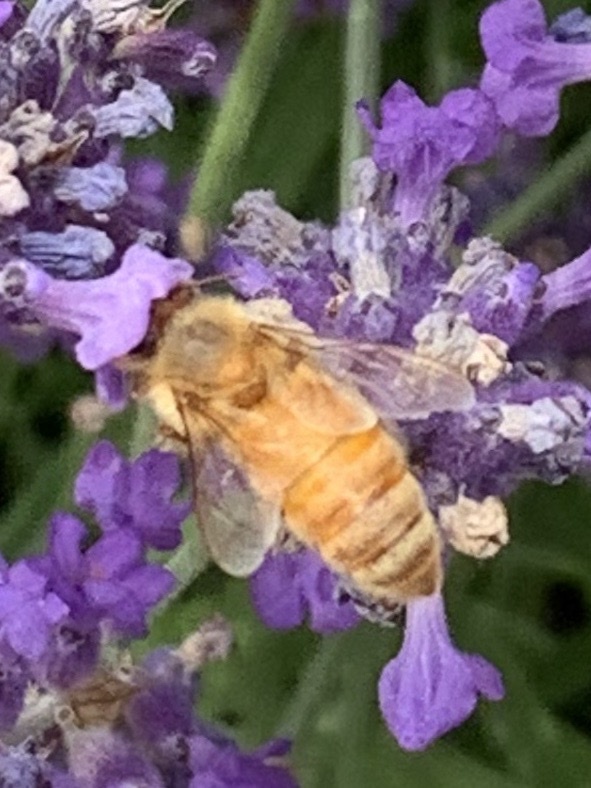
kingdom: Animalia
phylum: Arthropoda
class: Insecta
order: Hymenoptera
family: Apidae
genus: Apis
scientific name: Apis mellifera
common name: Honey bee
